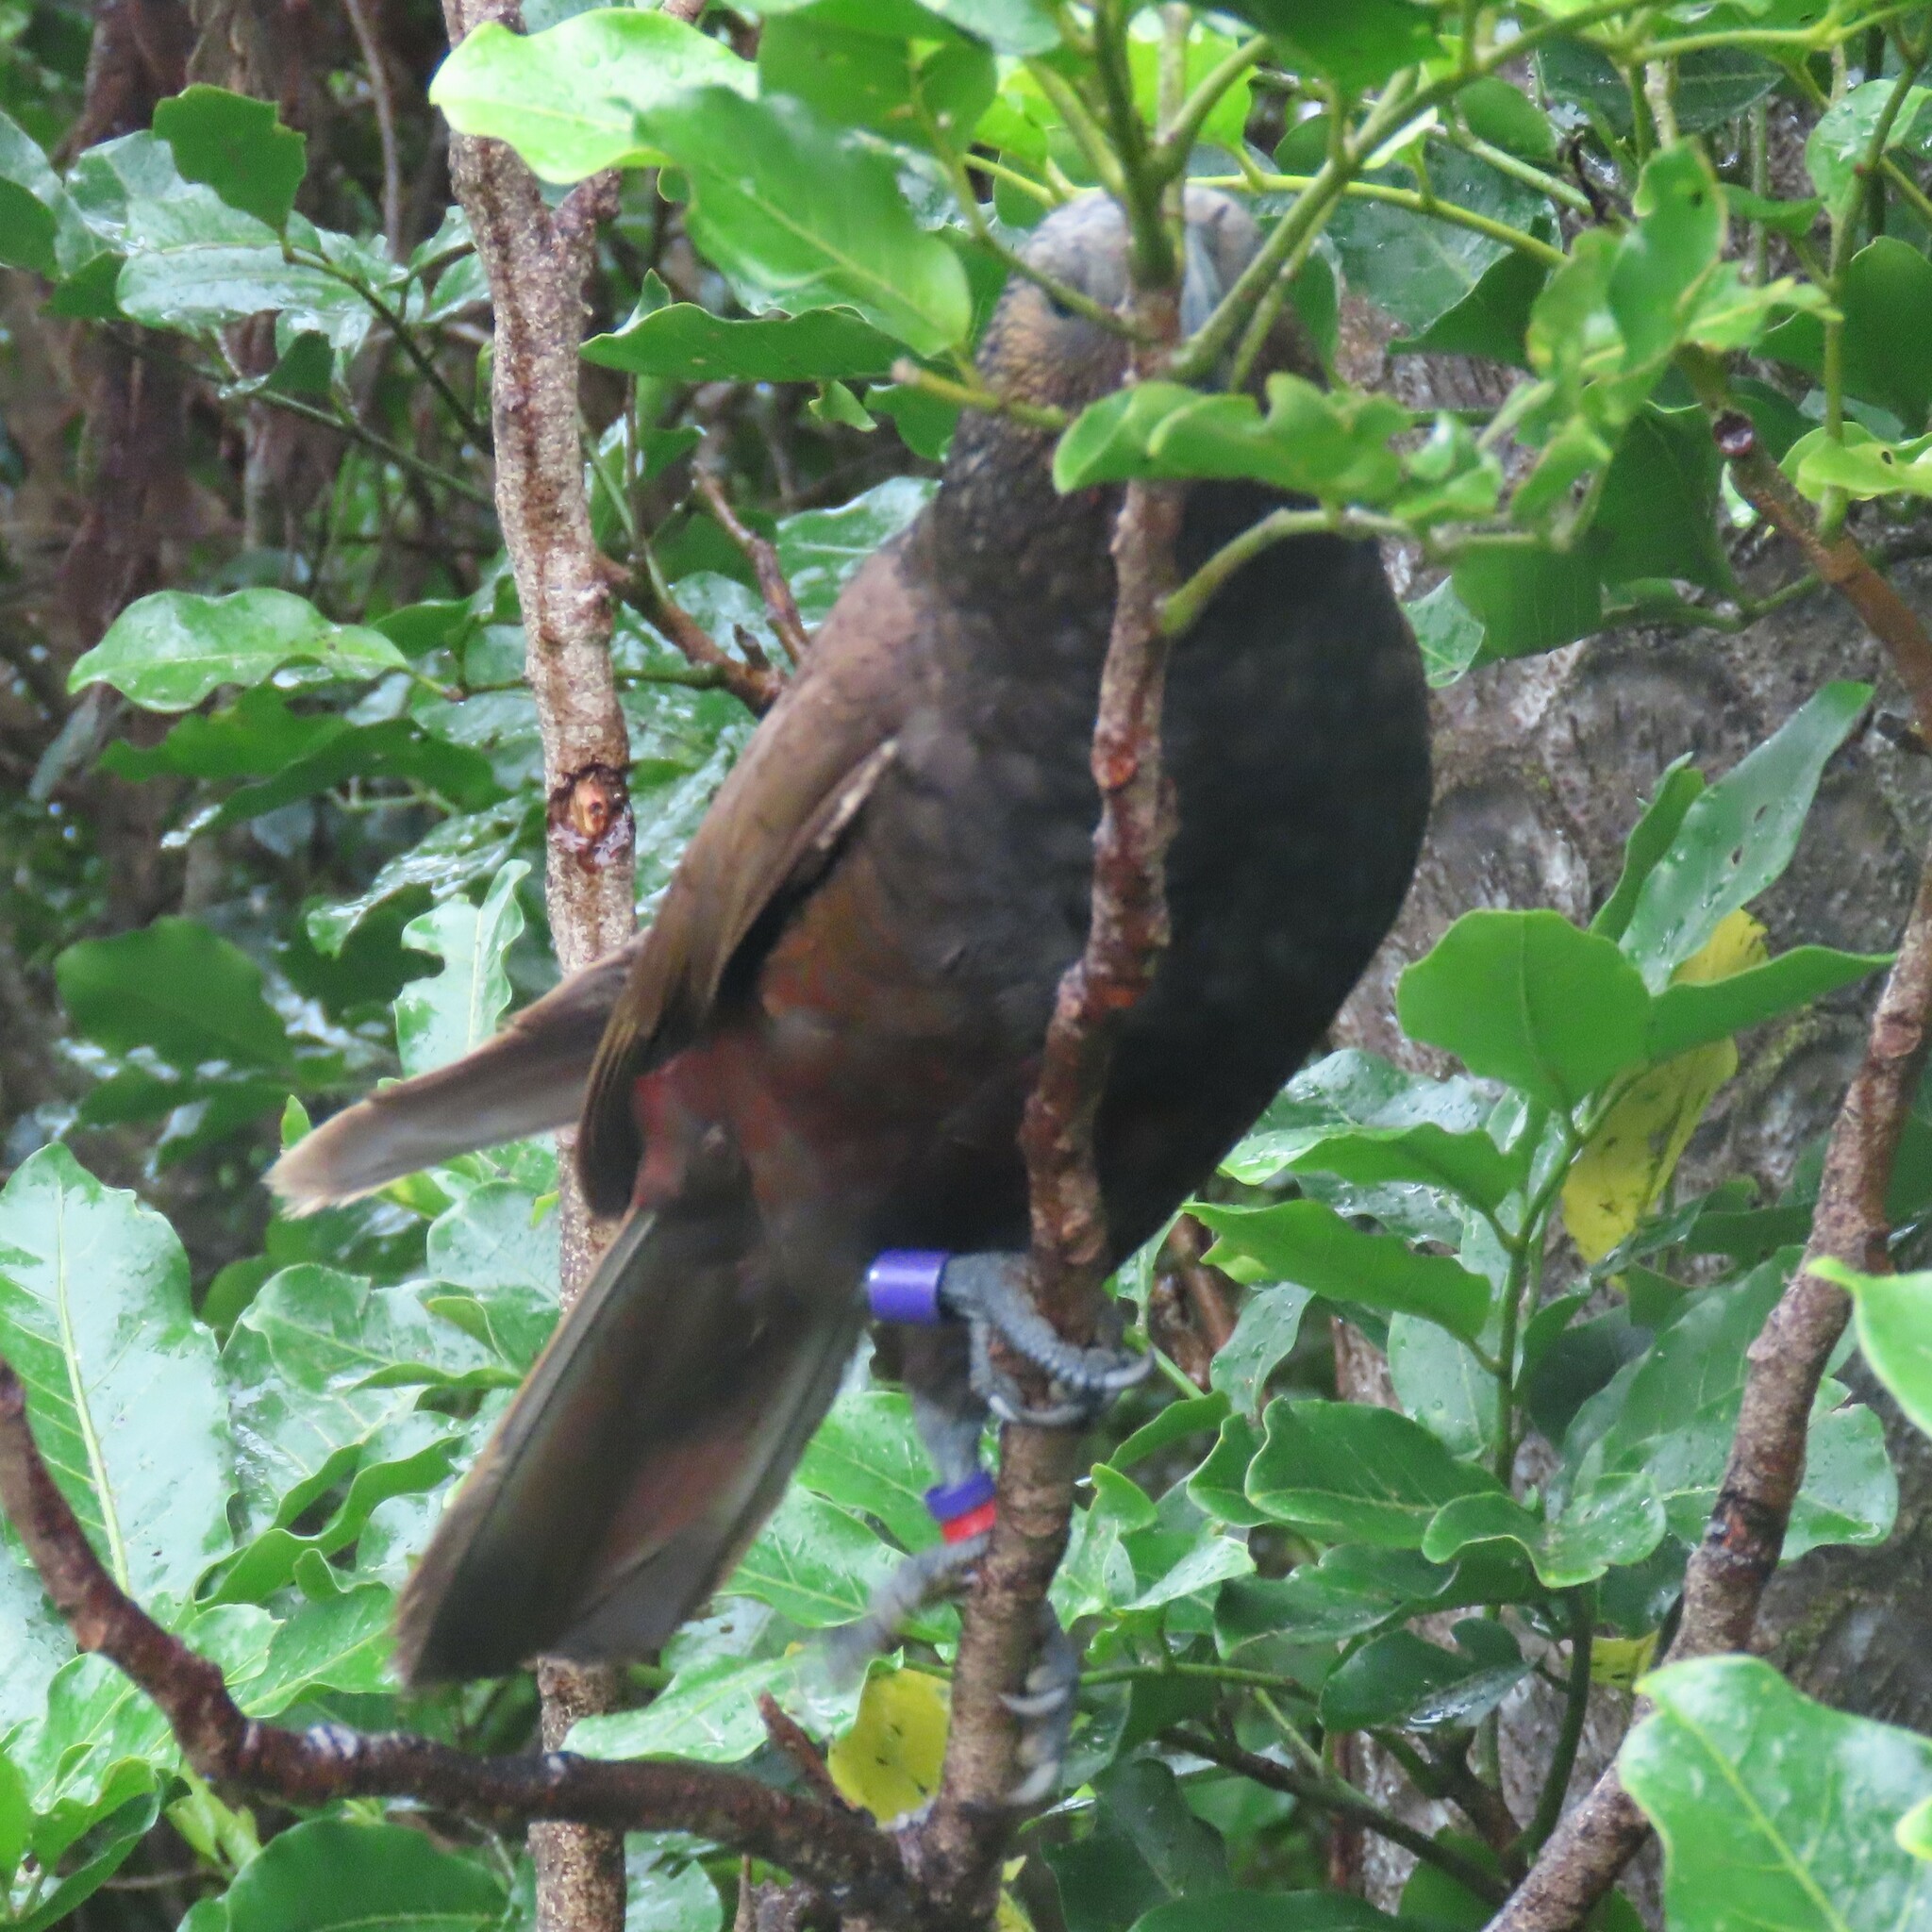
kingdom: Animalia
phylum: Chordata
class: Aves
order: Psittaciformes
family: Psittacidae
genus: Nestor
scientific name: Nestor meridionalis
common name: New zealand kaka
